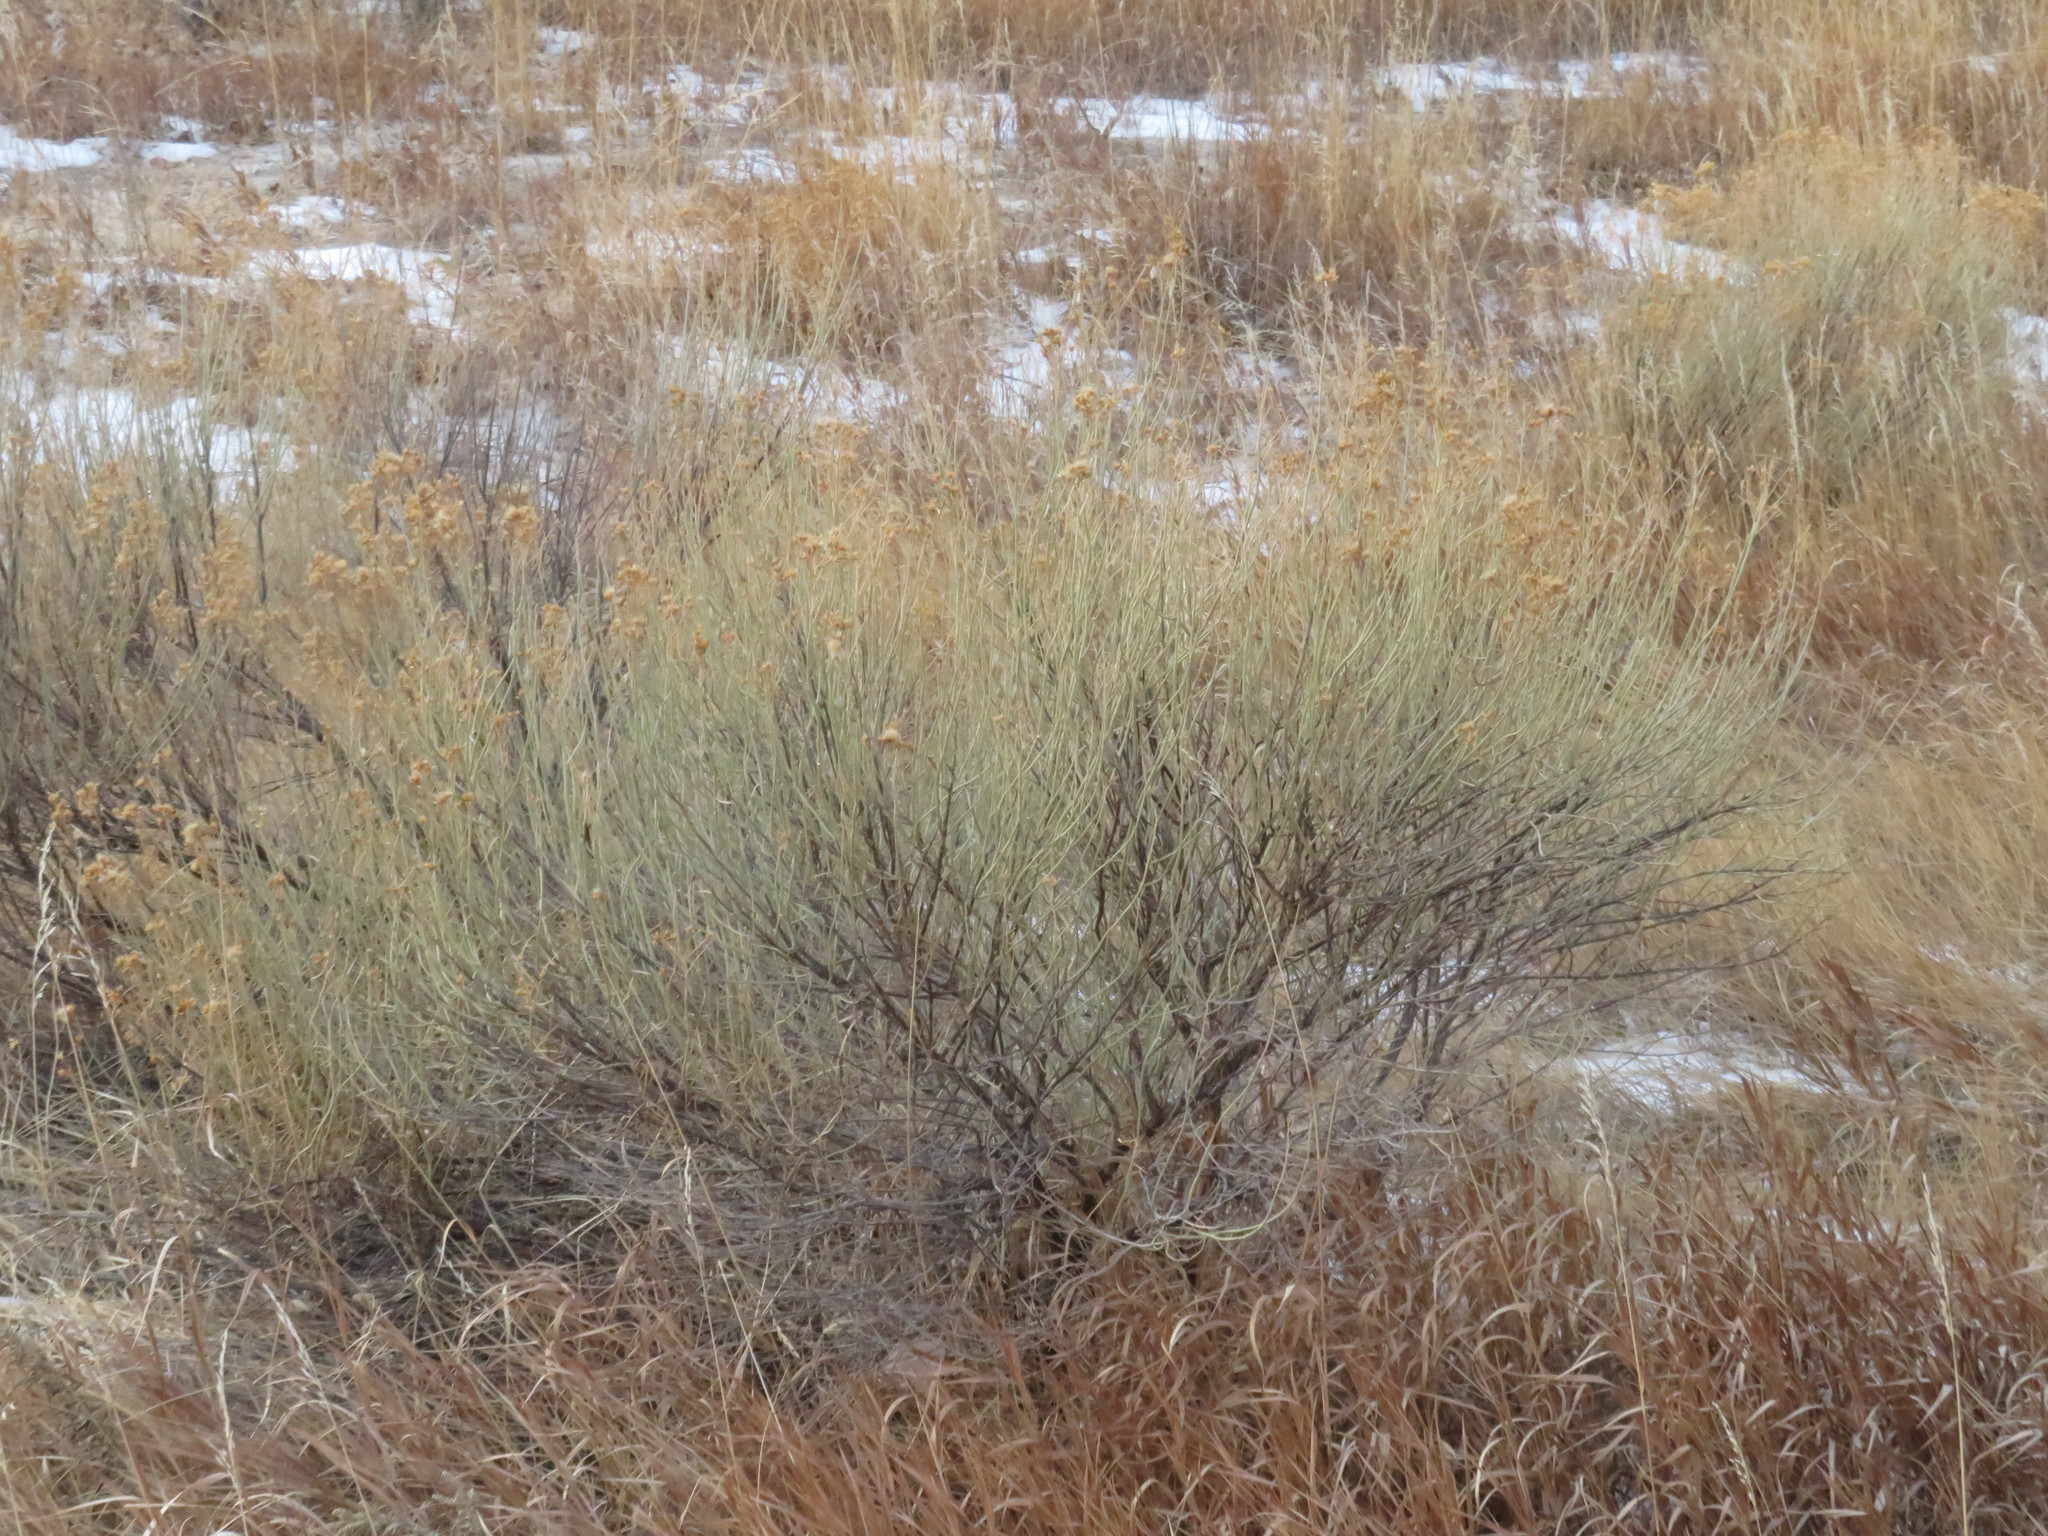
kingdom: Plantae
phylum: Tracheophyta
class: Magnoliopsida
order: Asterales
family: Asteraceae
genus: Ericameria
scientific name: Ericameria nauseosa
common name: Rubber rabbitbrush
